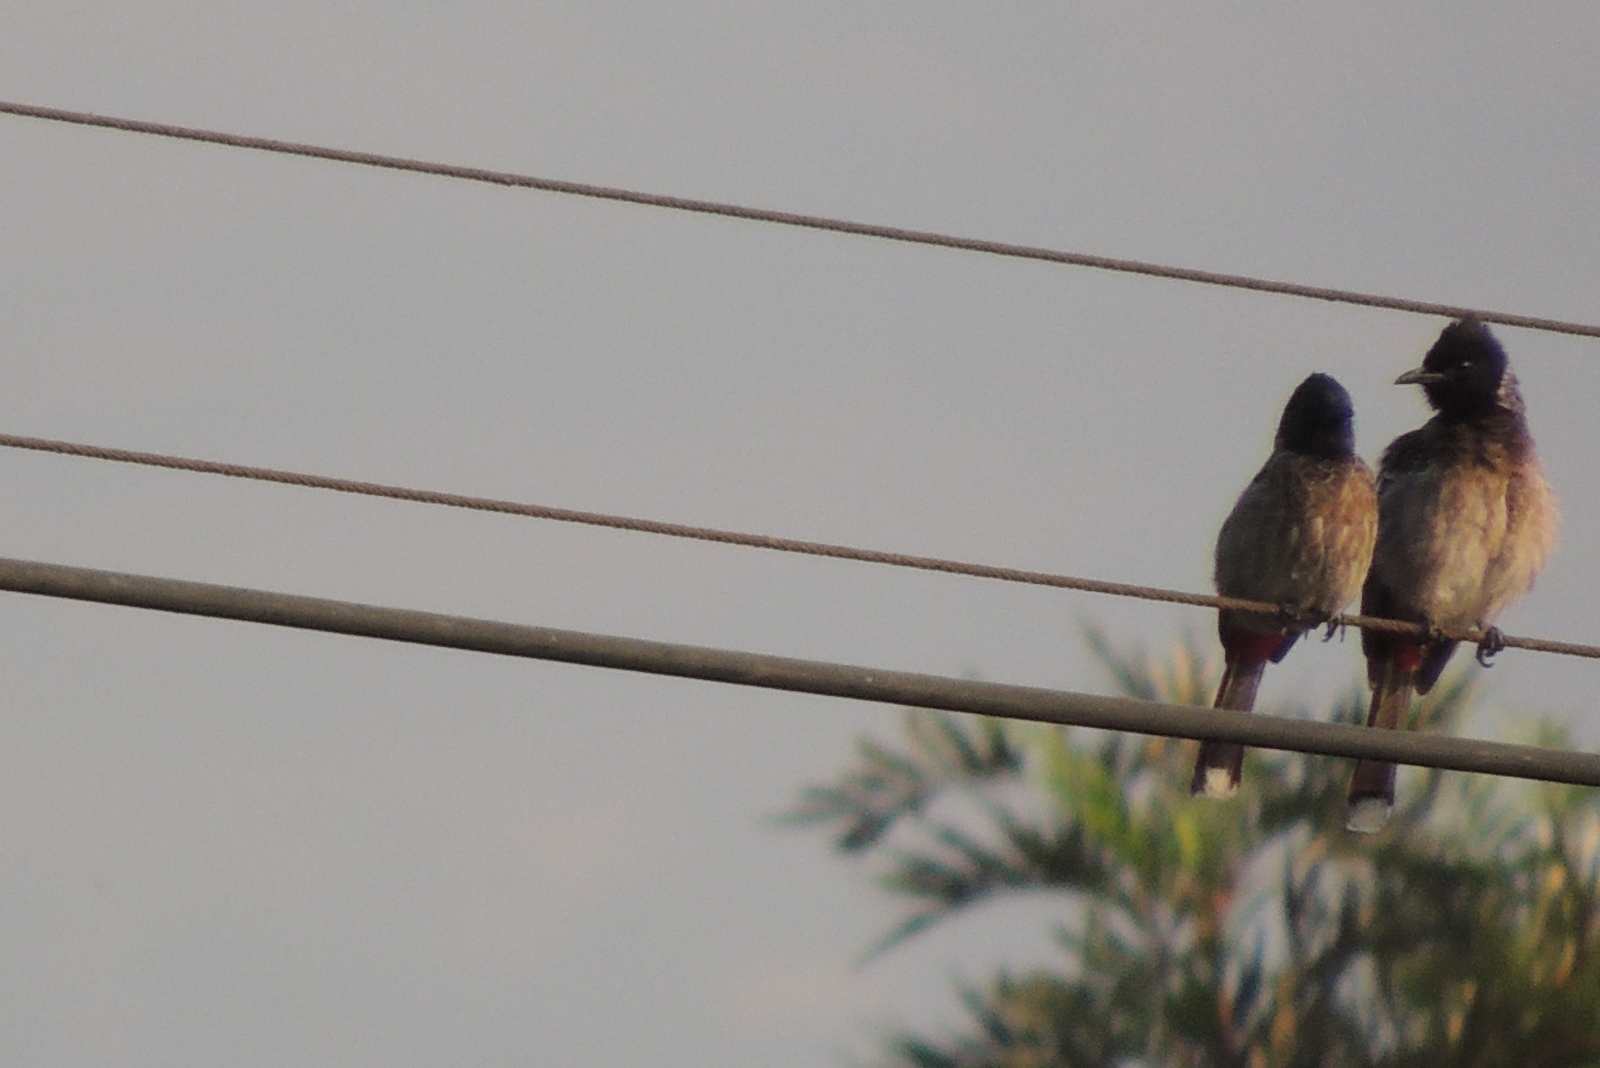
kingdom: Animalia
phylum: Chordata
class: Aves
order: Passeriformes
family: Pycnonotidae
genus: Pycnonotus
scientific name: Pycnonotus cafer
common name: Red-vented bulbul
